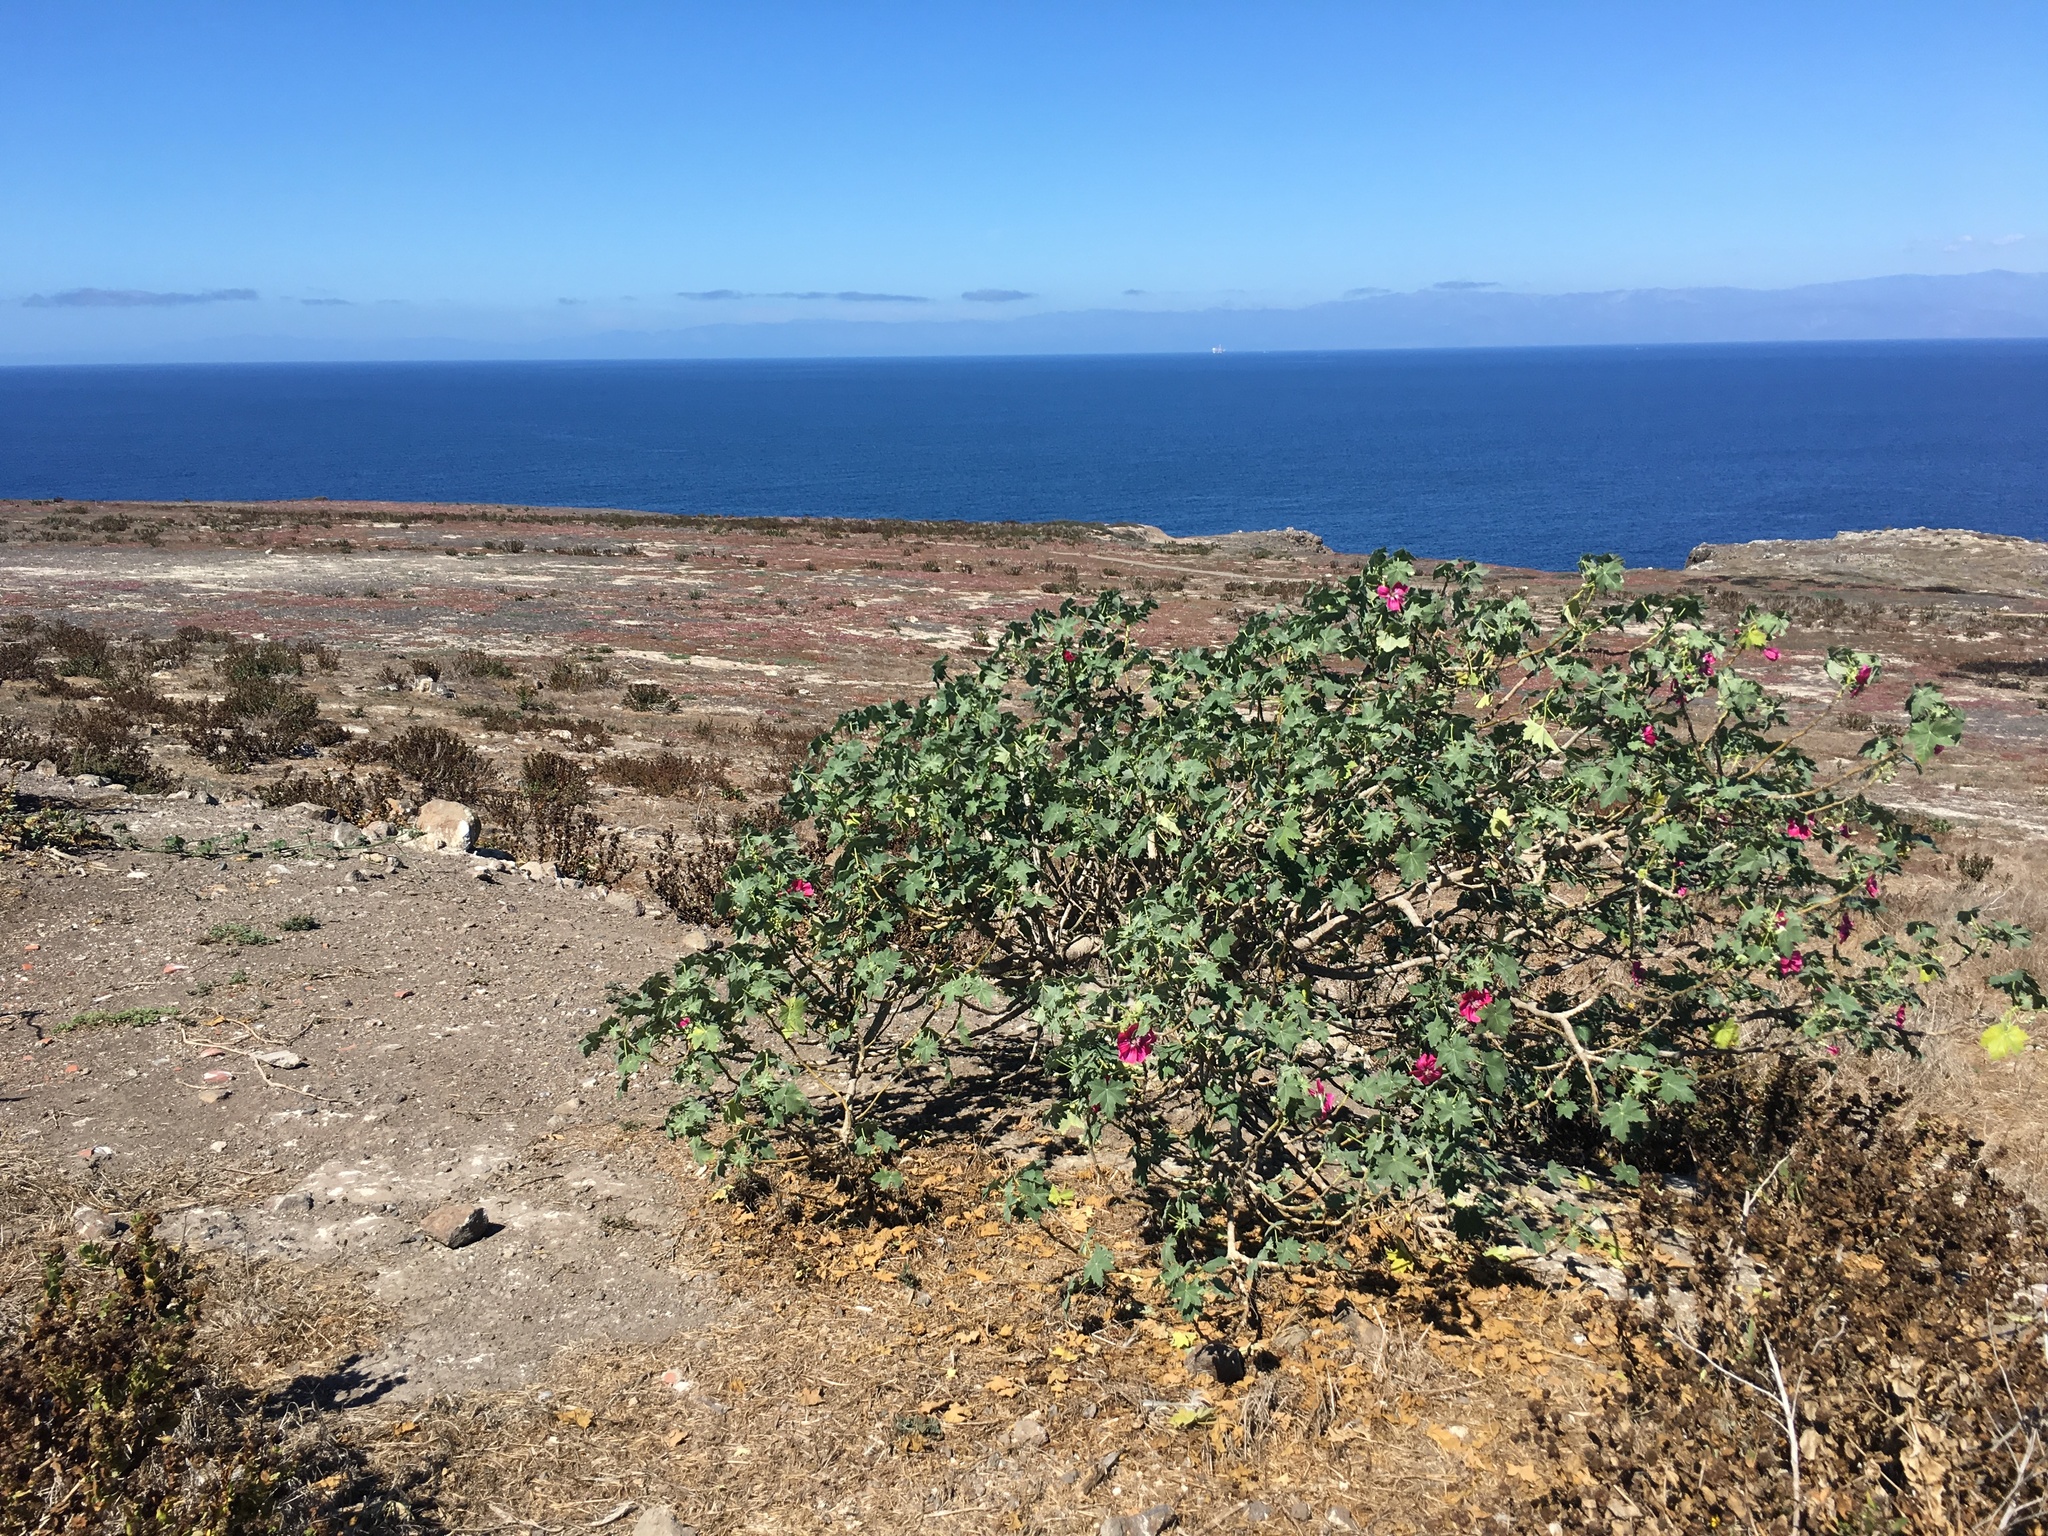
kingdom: Plantae
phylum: Tracheophyta
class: Magnoliopsida
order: Malvales
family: Malvaceae
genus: Malva
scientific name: Malva assurgentiflora
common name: Island mallow
